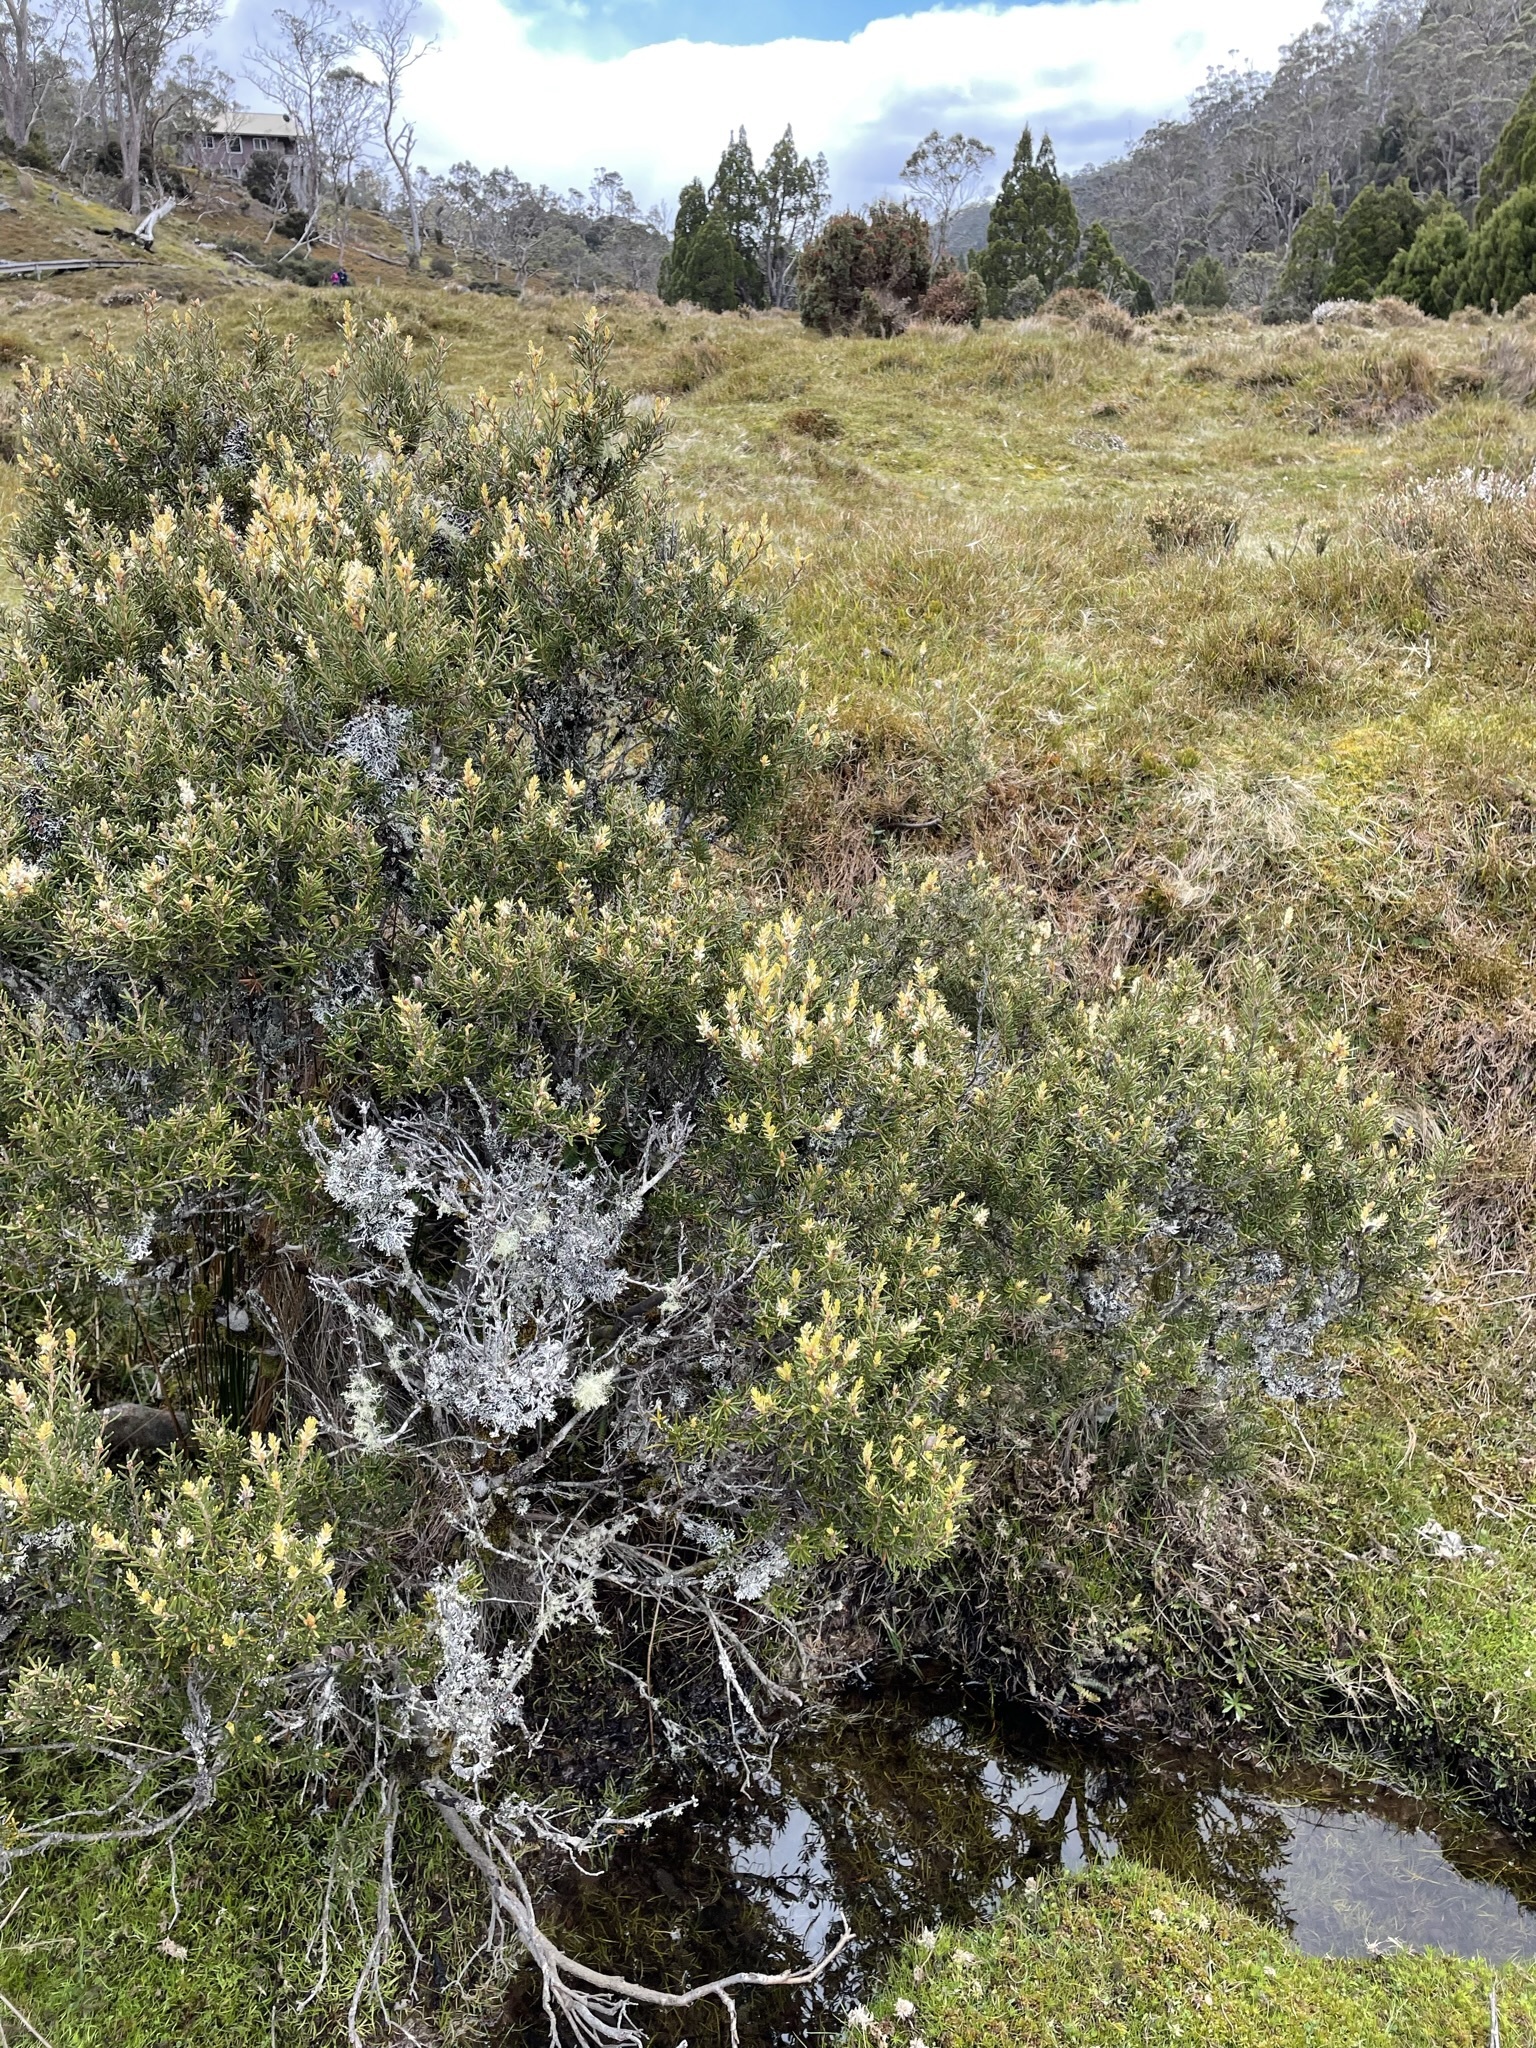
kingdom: Plantae
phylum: Tracheophyta
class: Magnoliopsida
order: Proteales
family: Proteaceae
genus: Orites
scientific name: Orites revolutus
